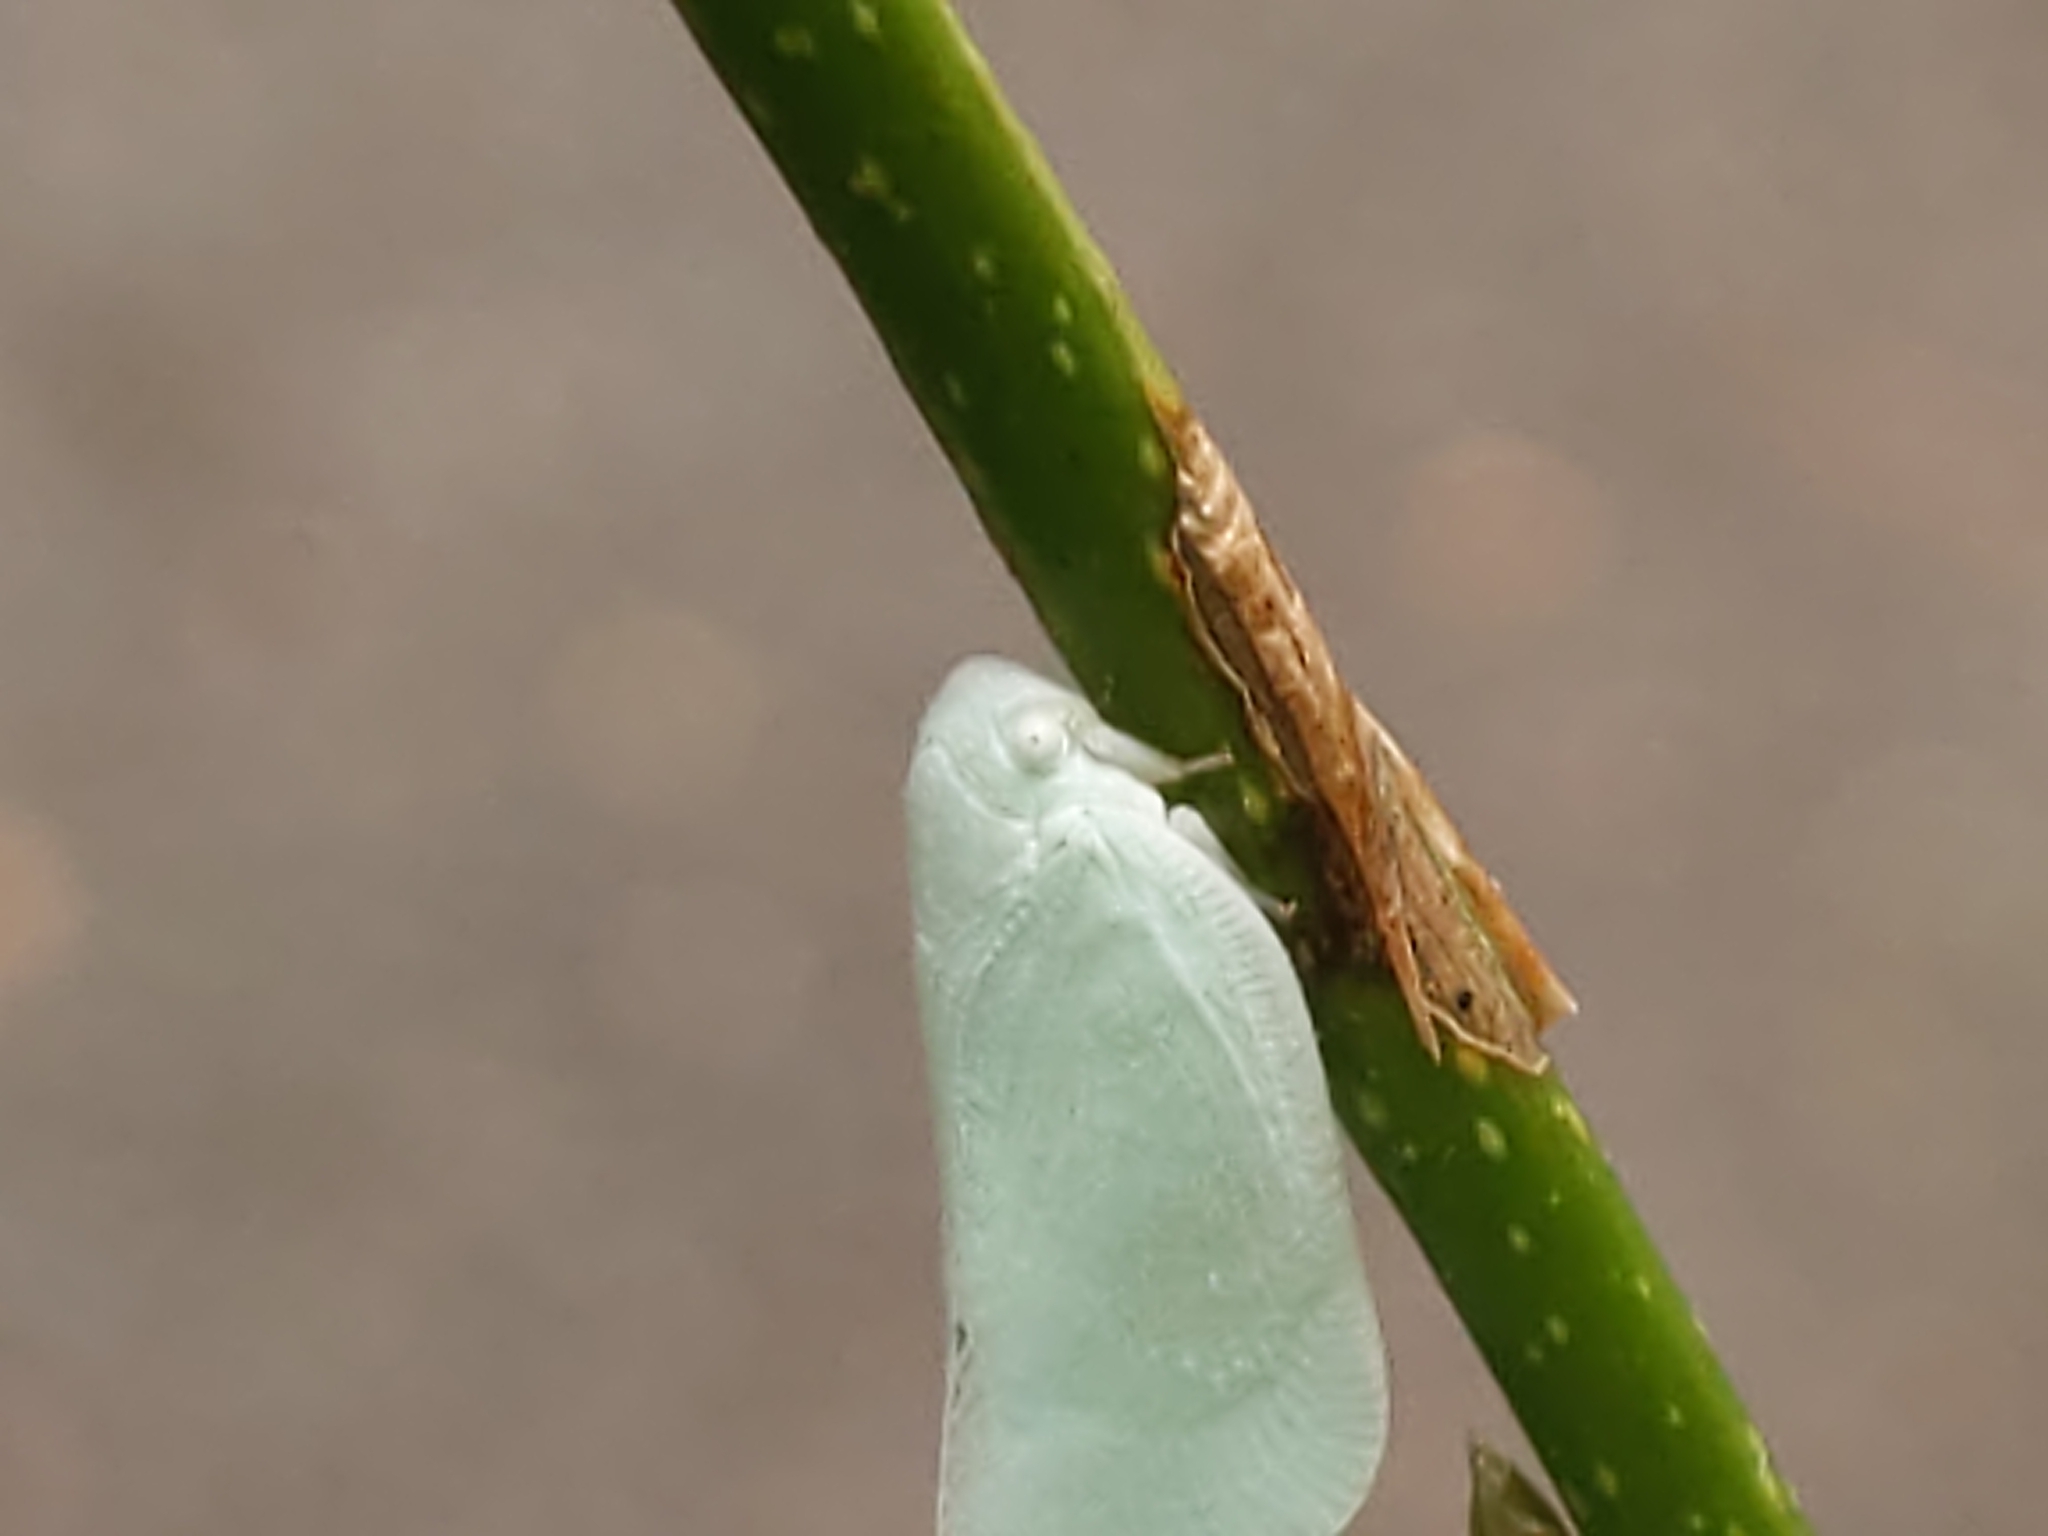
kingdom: Animalia
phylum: Arthropoda
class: Insecta
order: Hemiptera
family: Flatidae
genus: Flatormenis
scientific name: Flatormenis proxima
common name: Northern flatid planthopper
